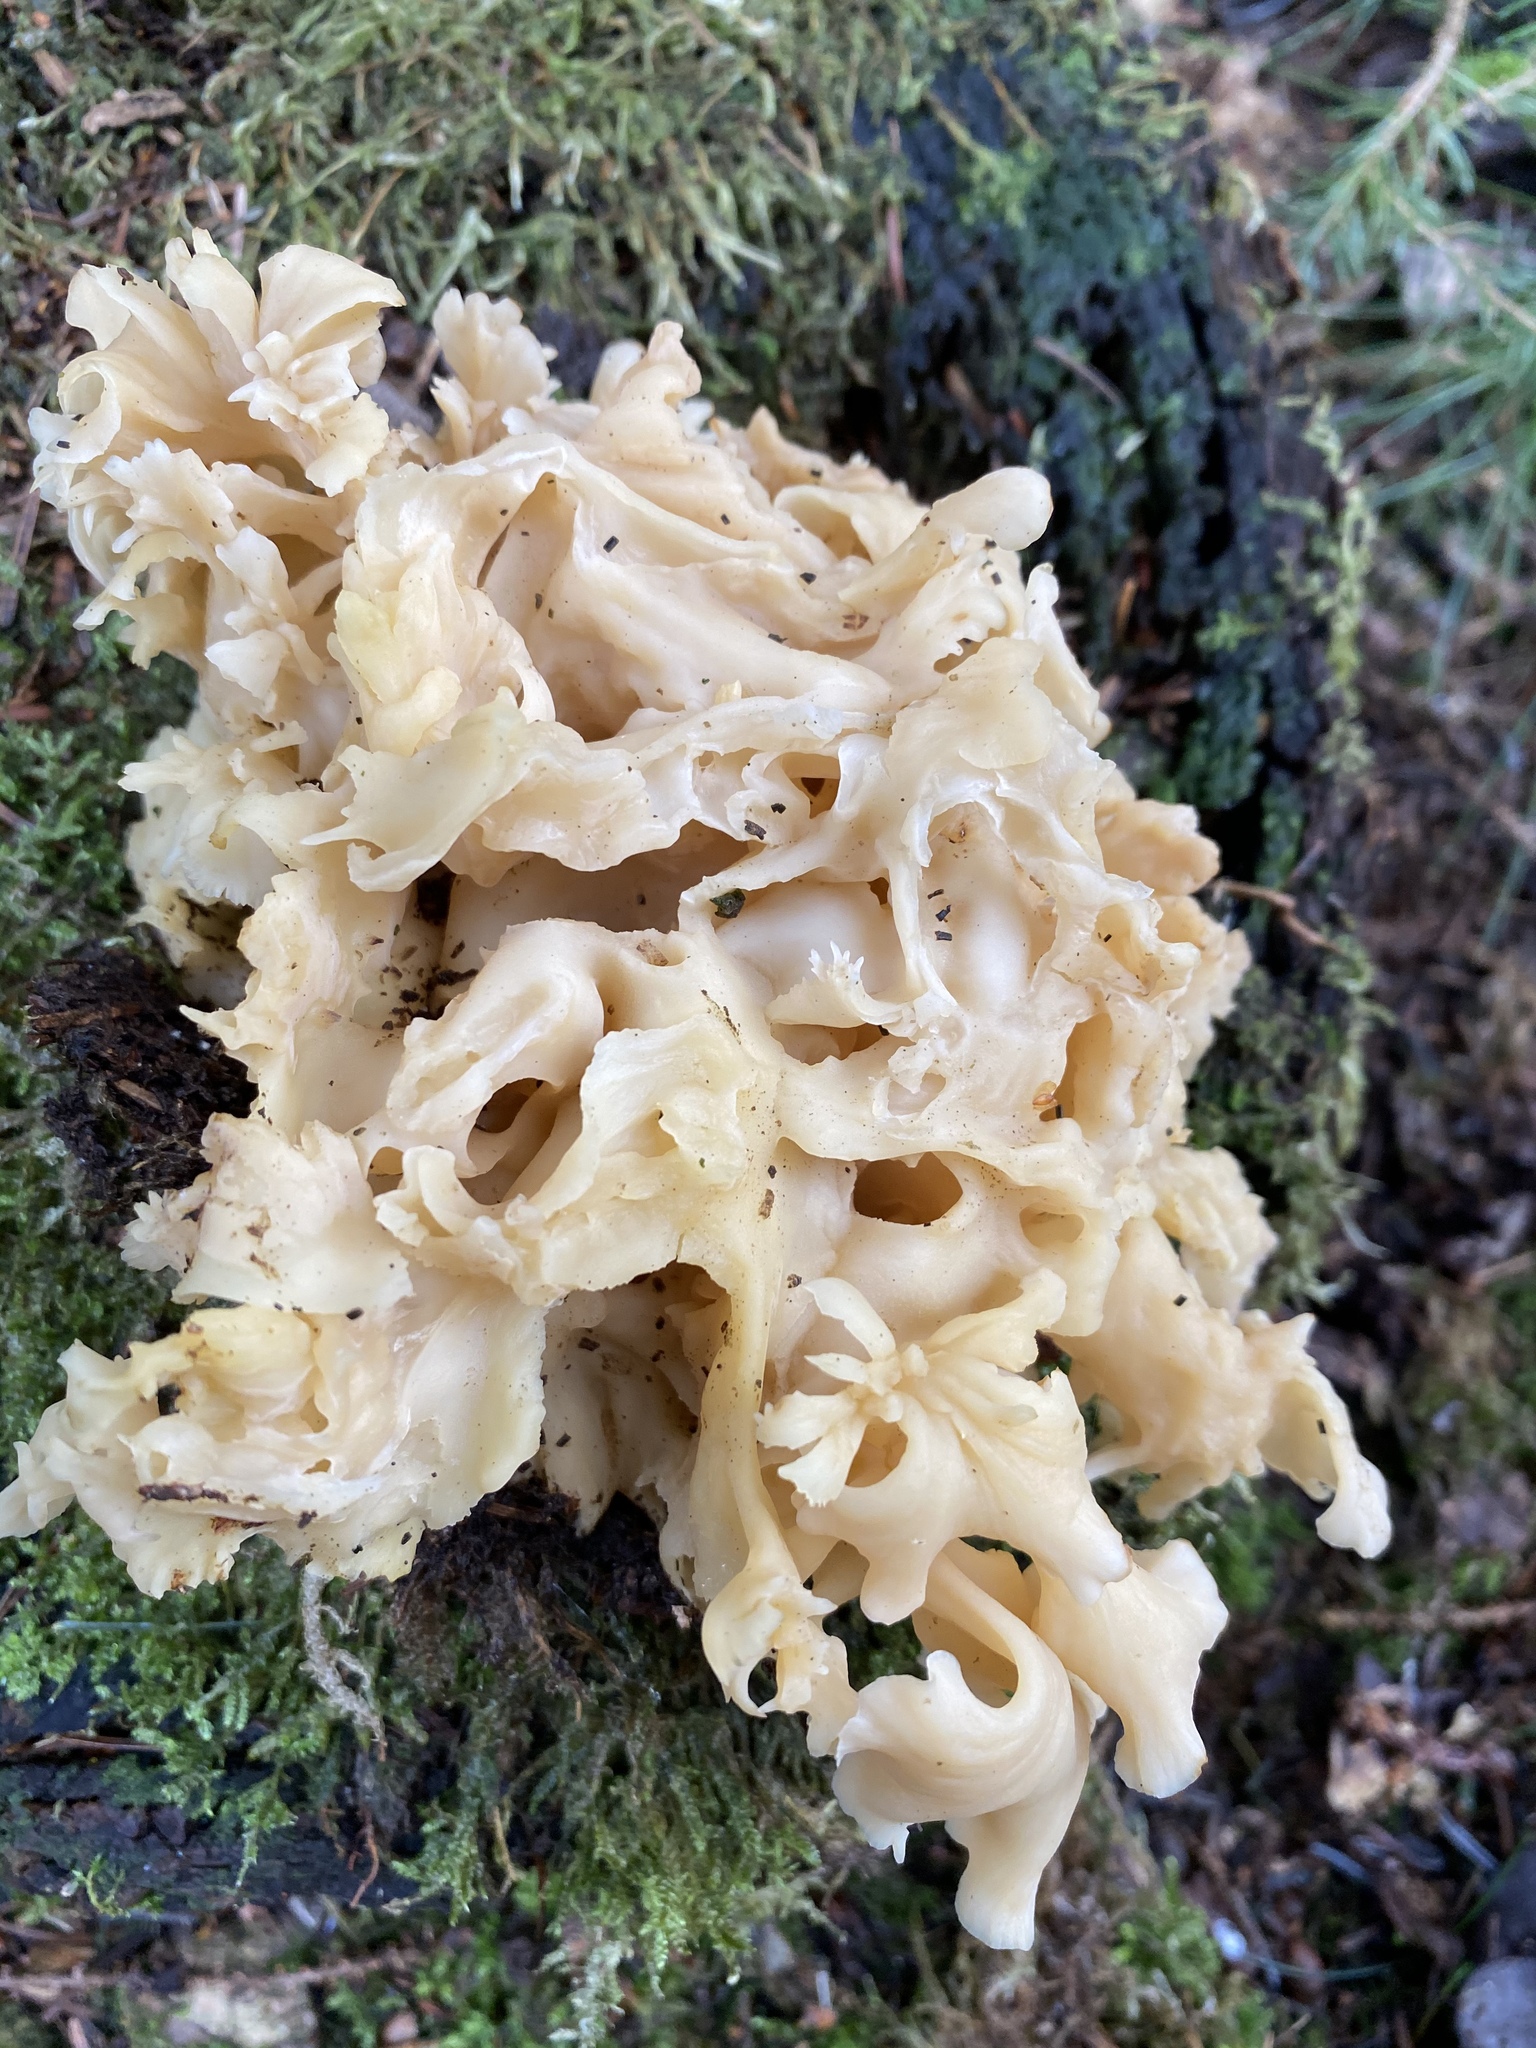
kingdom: Fungi
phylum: Basidiomycota
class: Agaricomycetes
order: Polyporales
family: Sparassidaceae
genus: Sparassis
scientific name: Sparassis crispa
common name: Brain fungus
